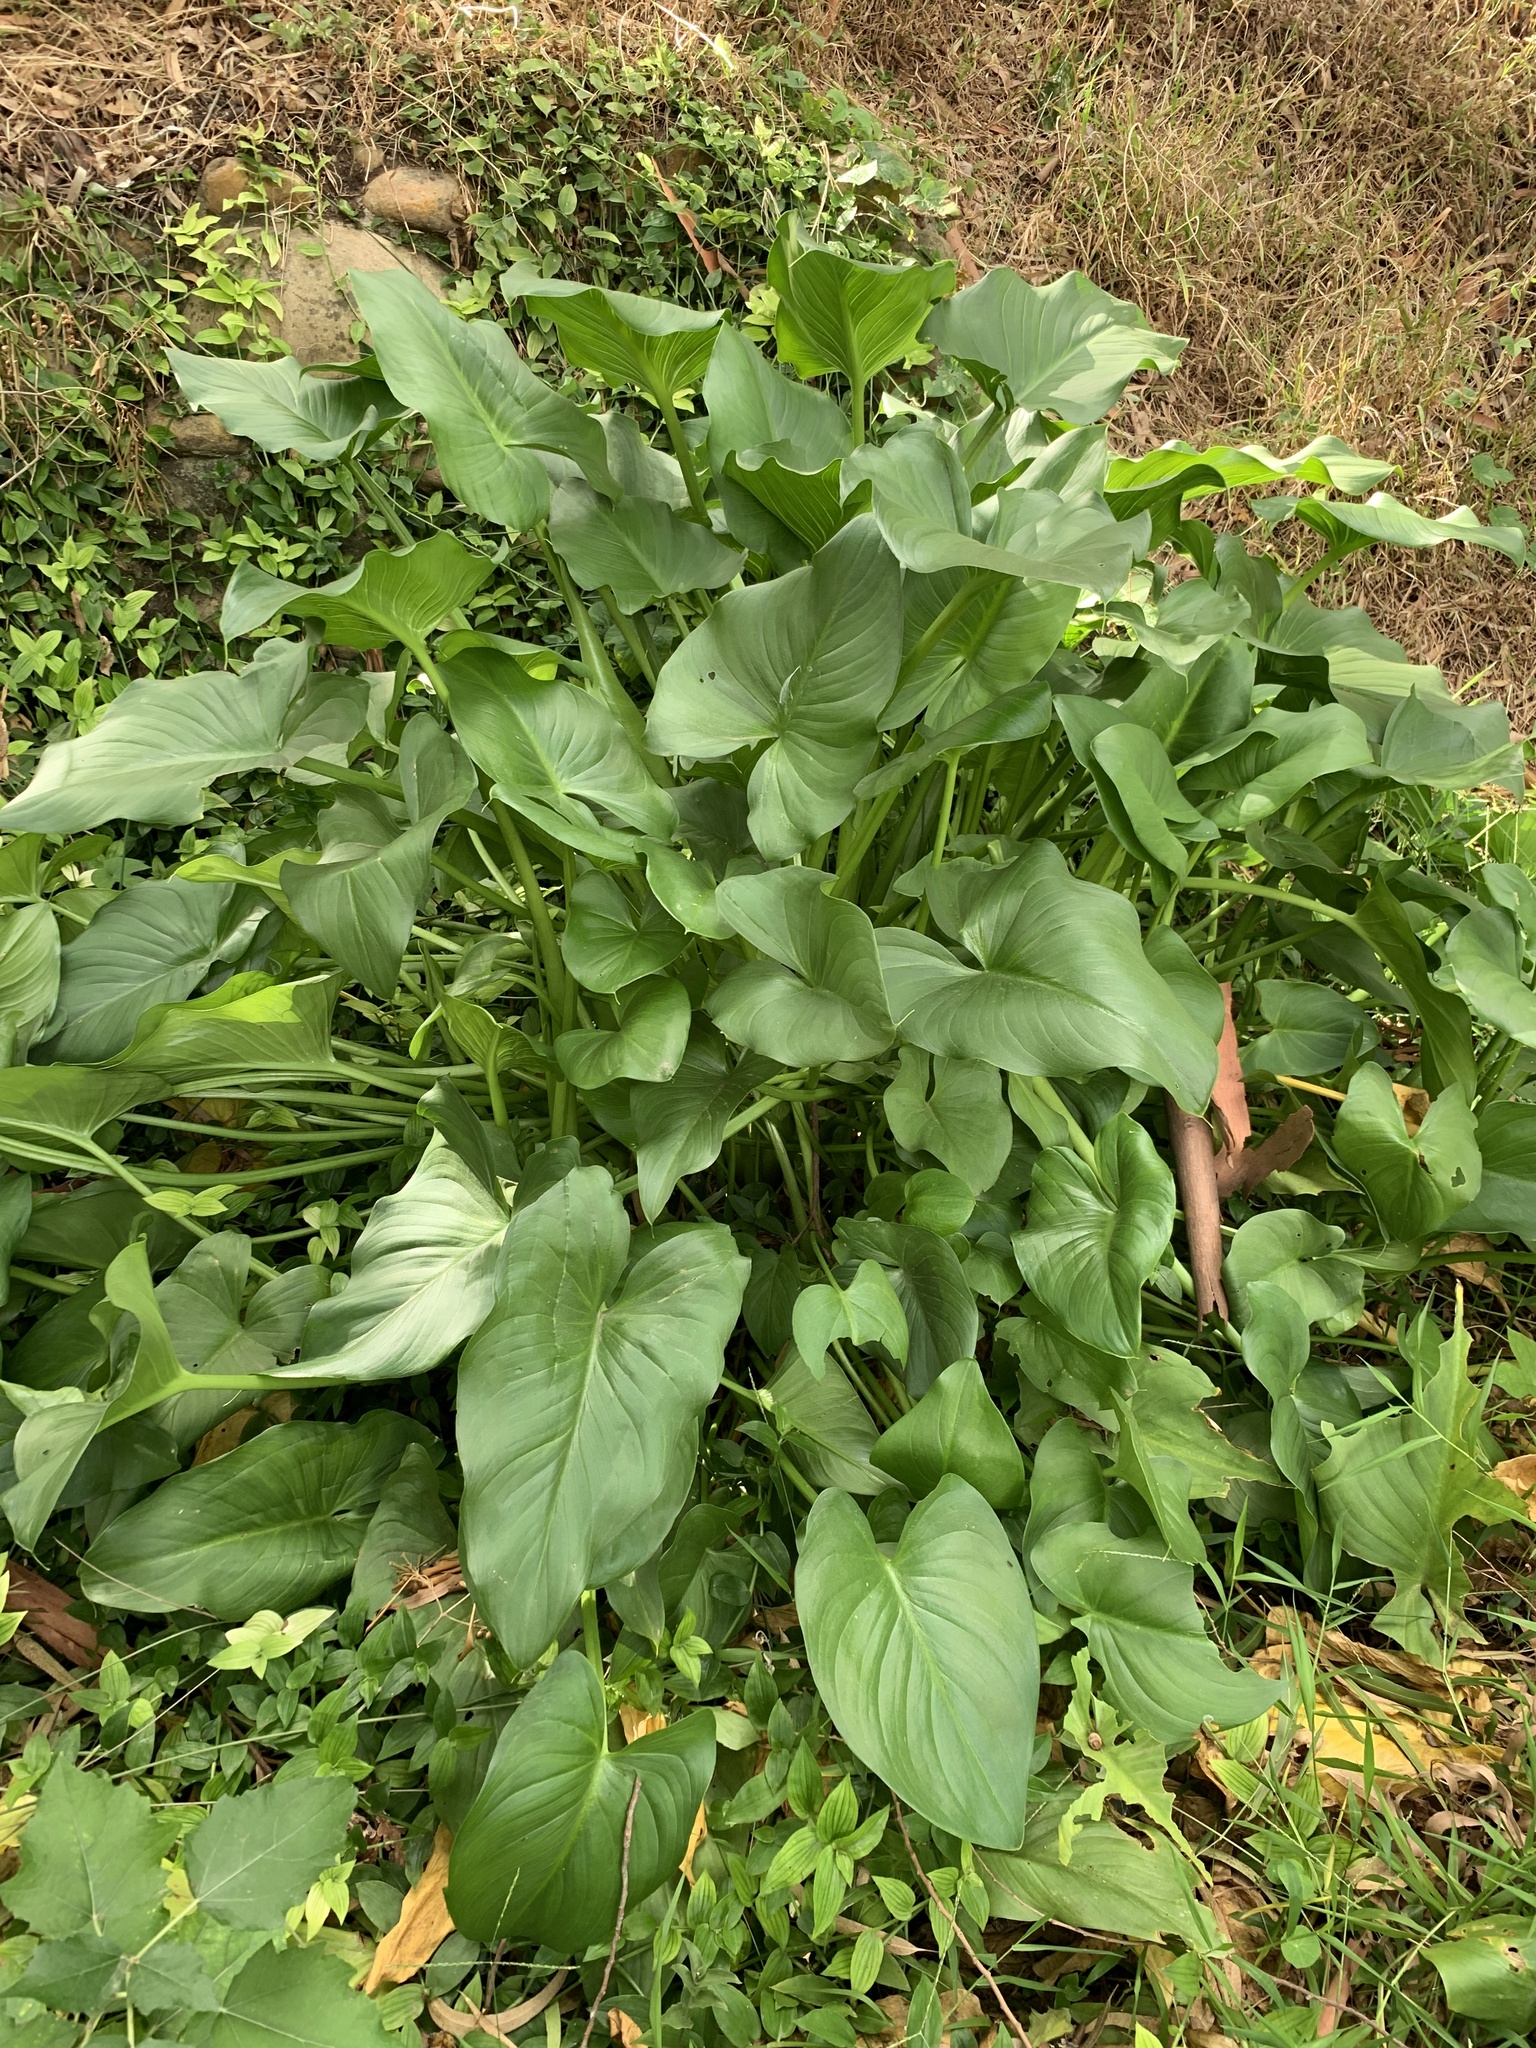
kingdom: Plantae
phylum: Tracheophyta
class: Liliopsida
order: Alismatales
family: Araceae
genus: Zantedeschia
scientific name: Zantedeschia aethiopica
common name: Altar-lily
